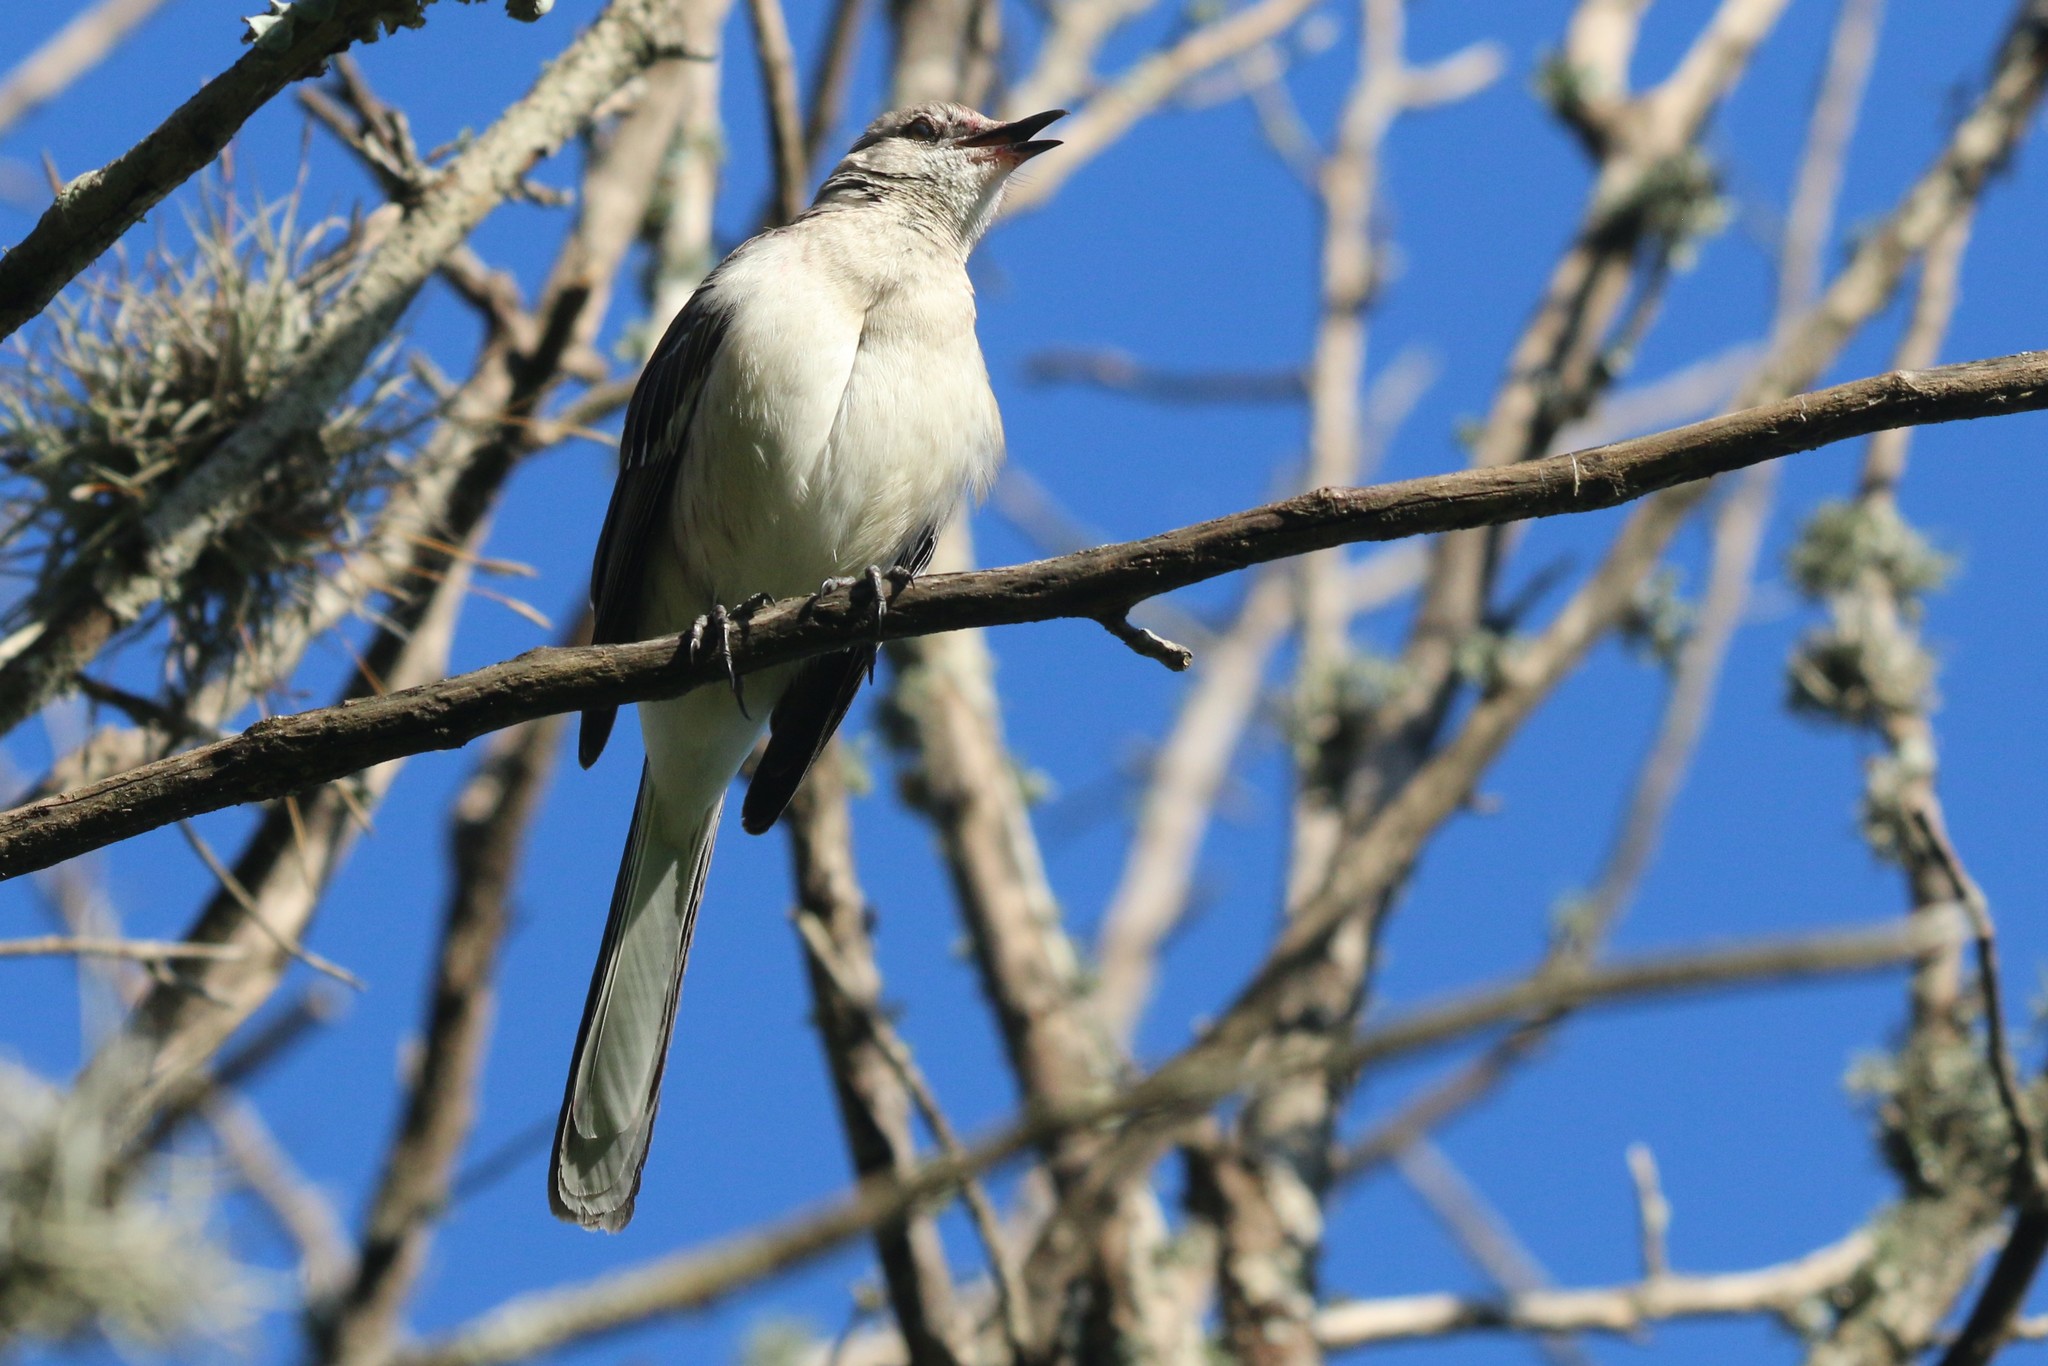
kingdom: Animalia
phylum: Chordata
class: Aves
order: Passeriformes
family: Mimidae
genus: Mimus
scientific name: Mimus polyglottos
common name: Northern mockingbird
